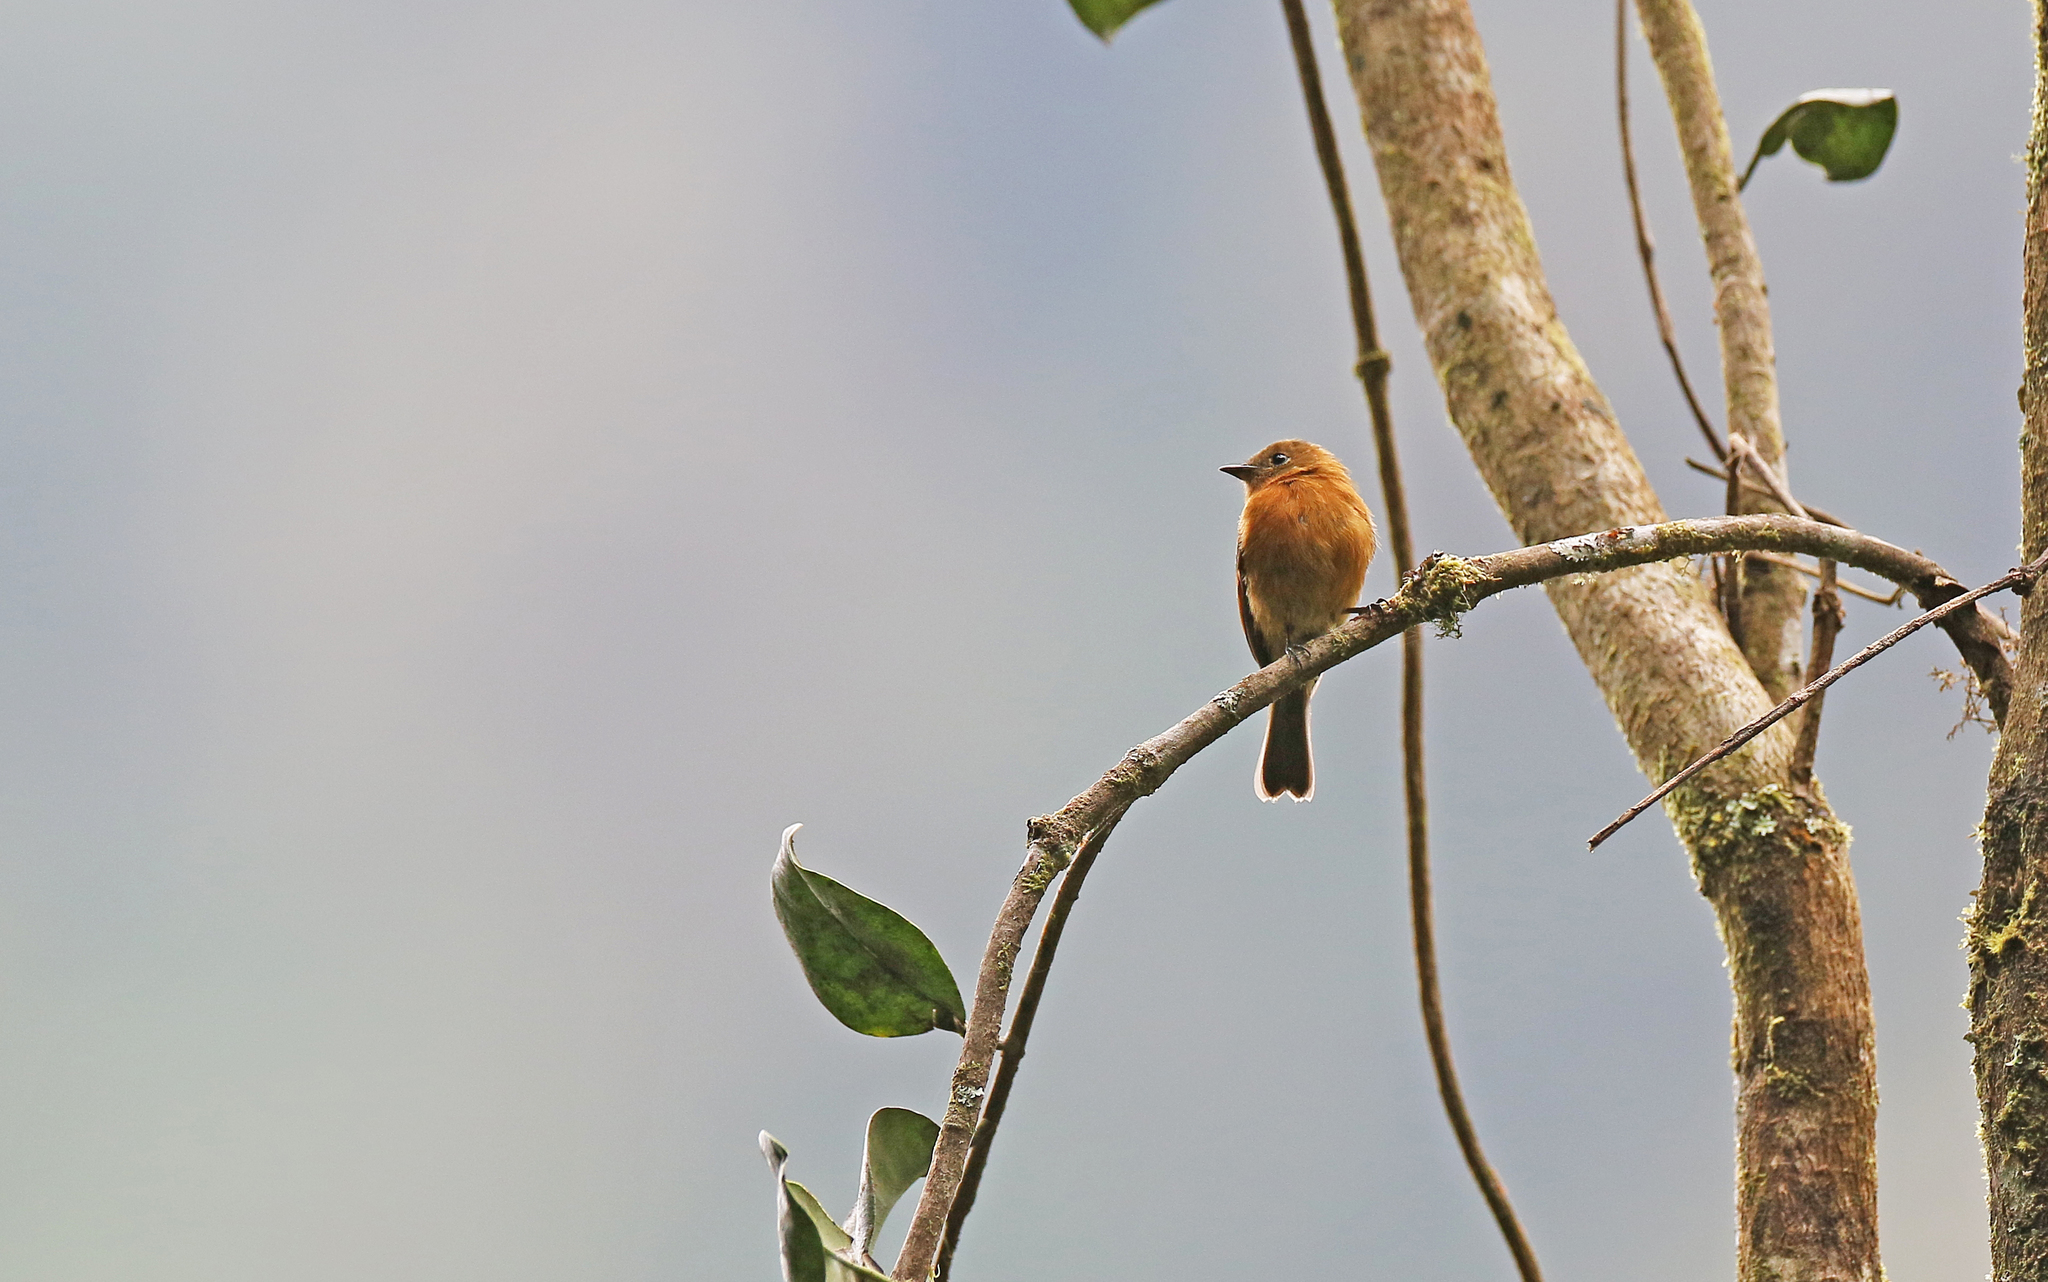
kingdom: Animalia
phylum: Chordata
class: Aves
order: Passeriformes
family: Tyrannidae
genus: Pyrrhomyias
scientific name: Pyrrhomyias cinnamomeus
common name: Cinnamon flycatcher
